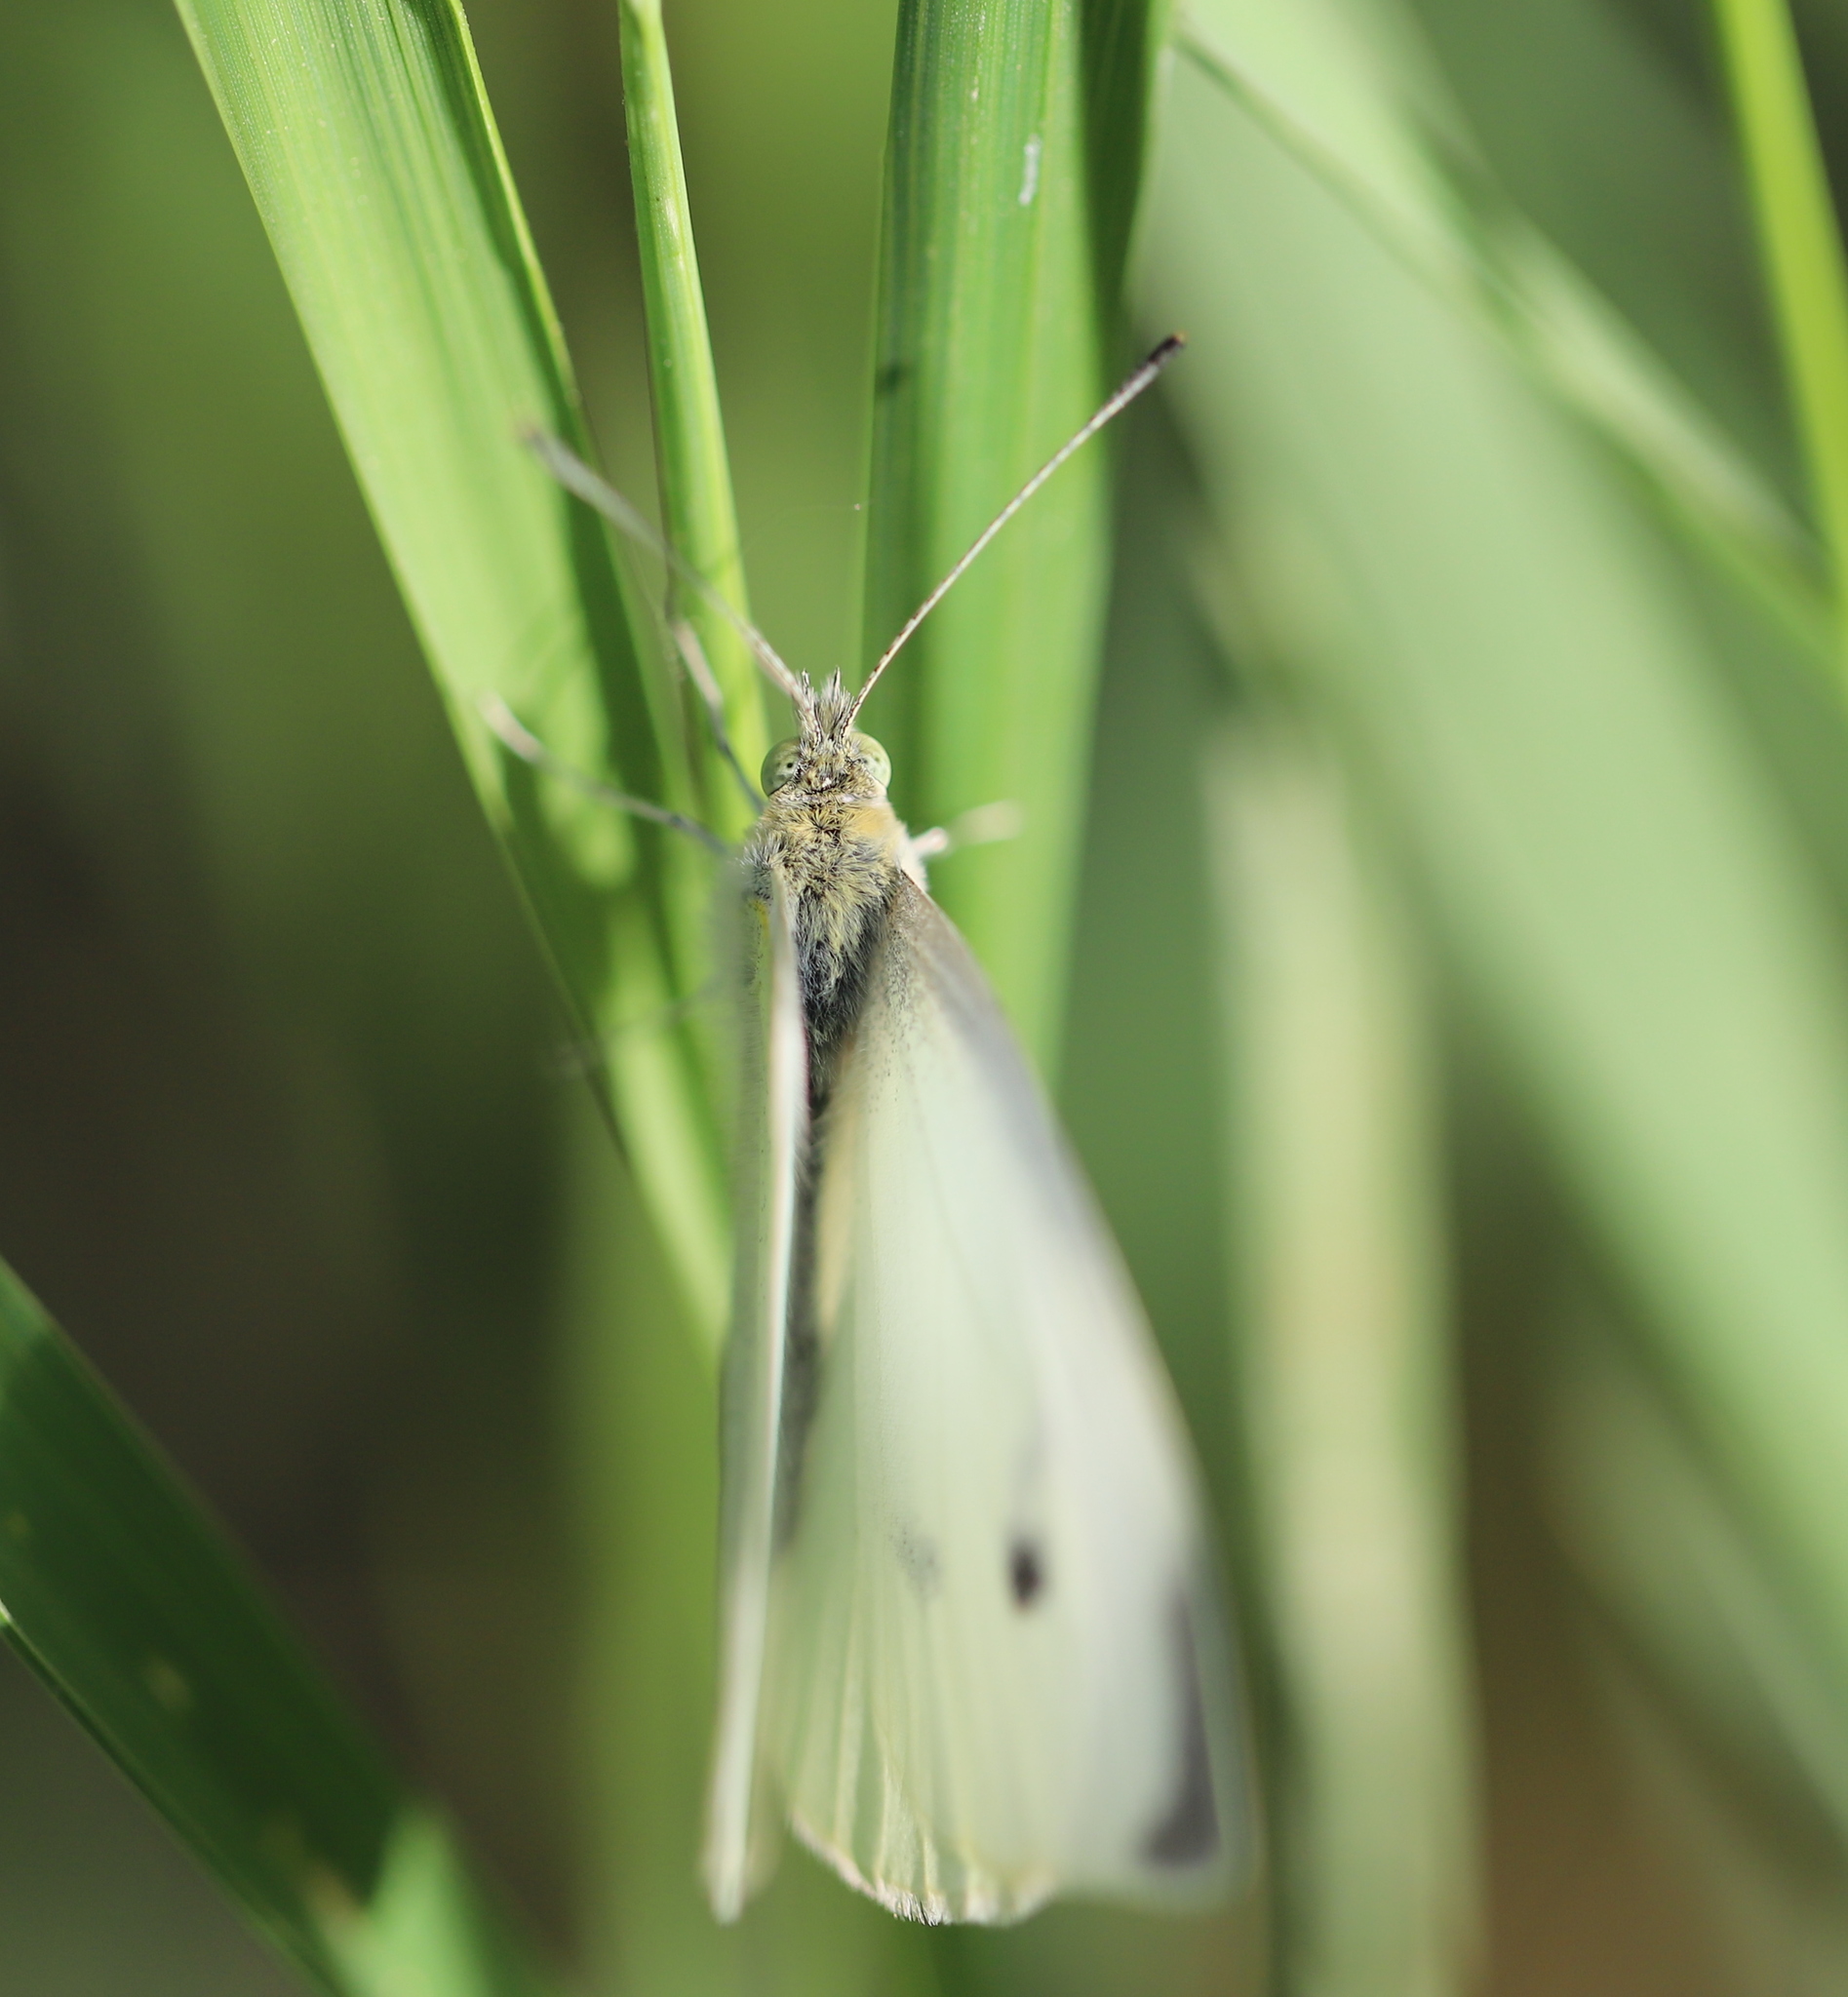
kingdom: Animalia
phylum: Arthropoda
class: Insecta
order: Lepidoptera
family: Pieridae
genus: Pieris
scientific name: Pieris rapae
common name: Small white
